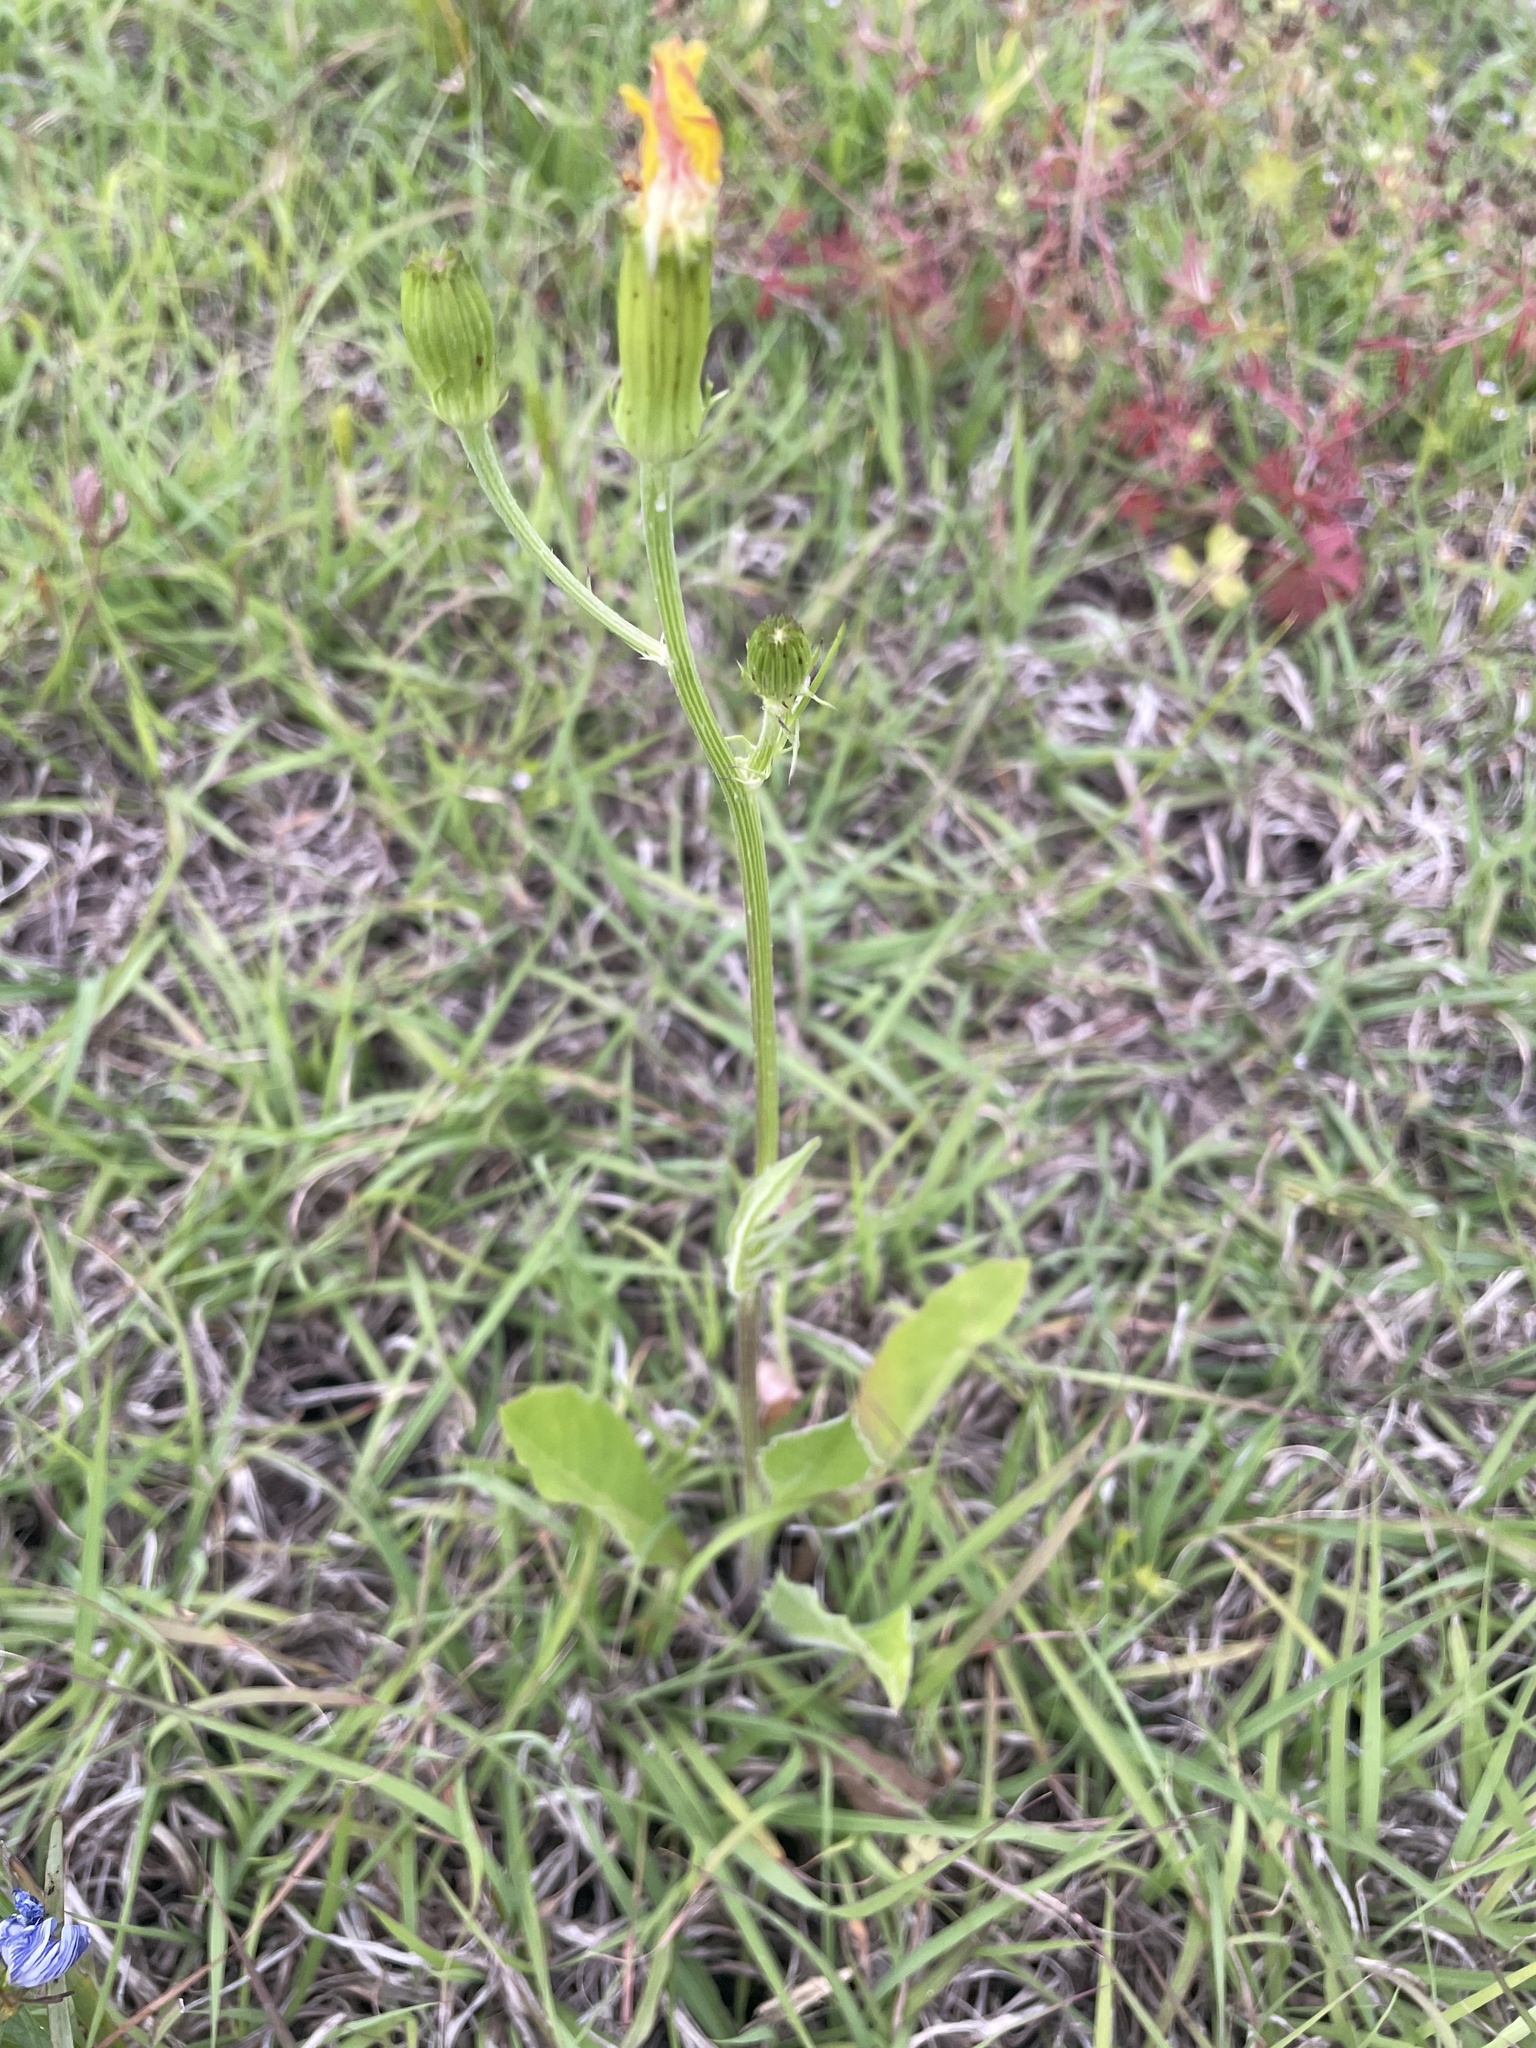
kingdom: Plantae
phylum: Tracheophyta
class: Magnoliopsida
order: Asterales
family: Asteraceae
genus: Pyrrhopappus
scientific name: Pyrrhopappus pauciflorus
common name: Texas false dandelion
